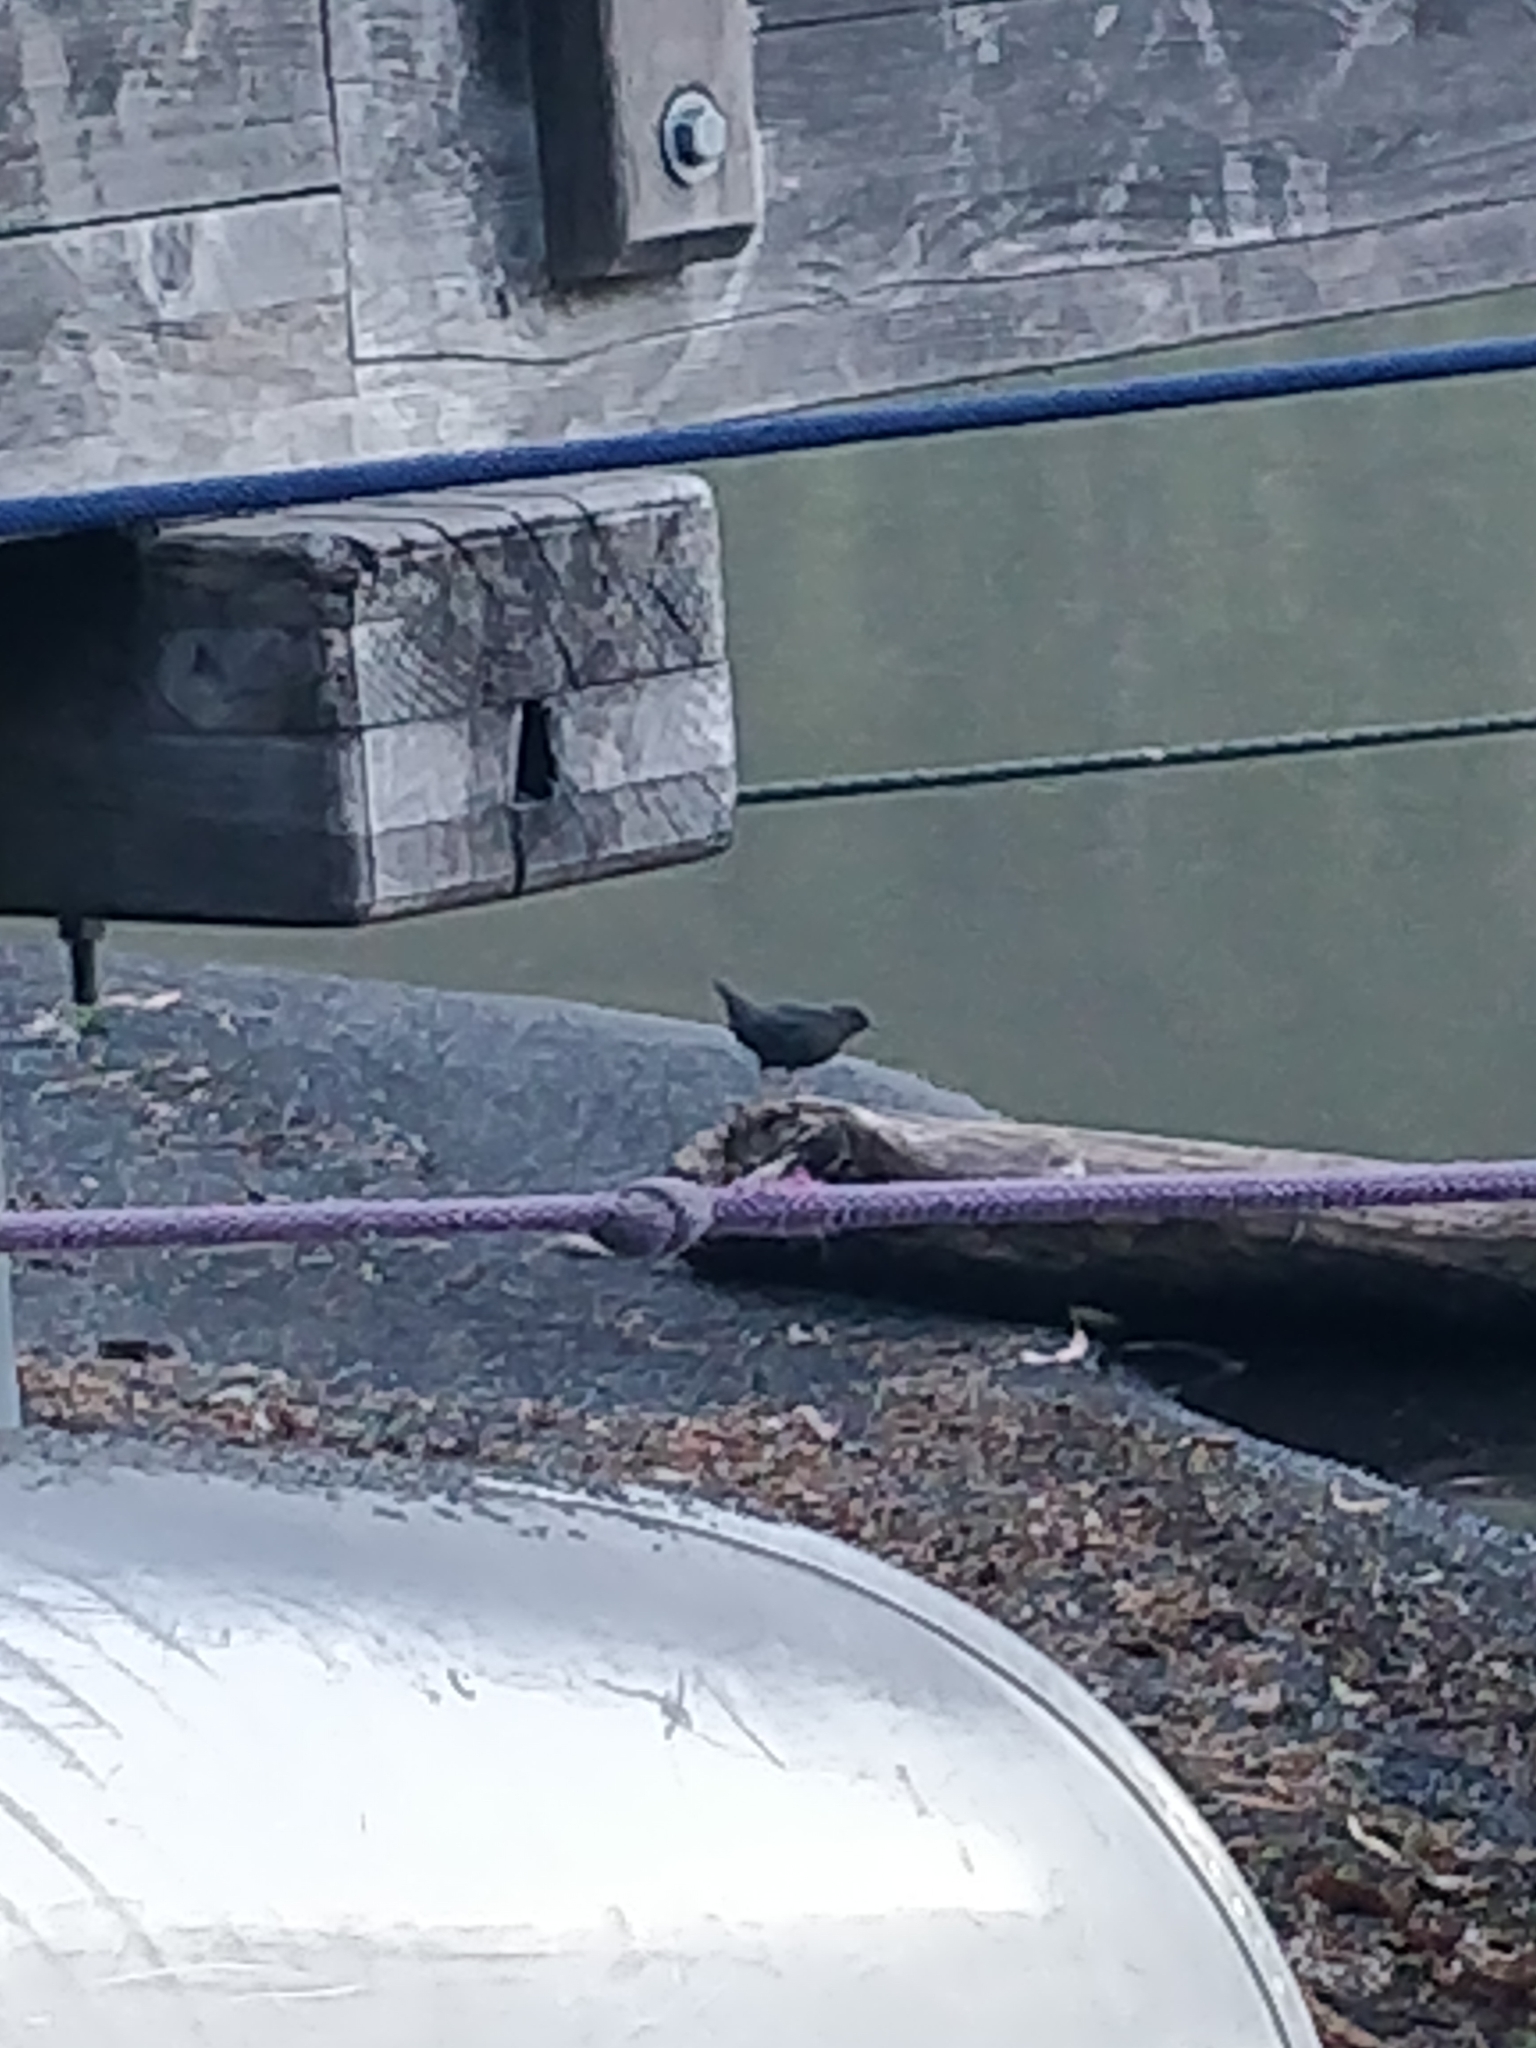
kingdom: Animalia
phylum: Chordata
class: Aves
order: Passeriformes
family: Cinclidae
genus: Cinclus
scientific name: Cinclus mexicanus
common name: American dipper
